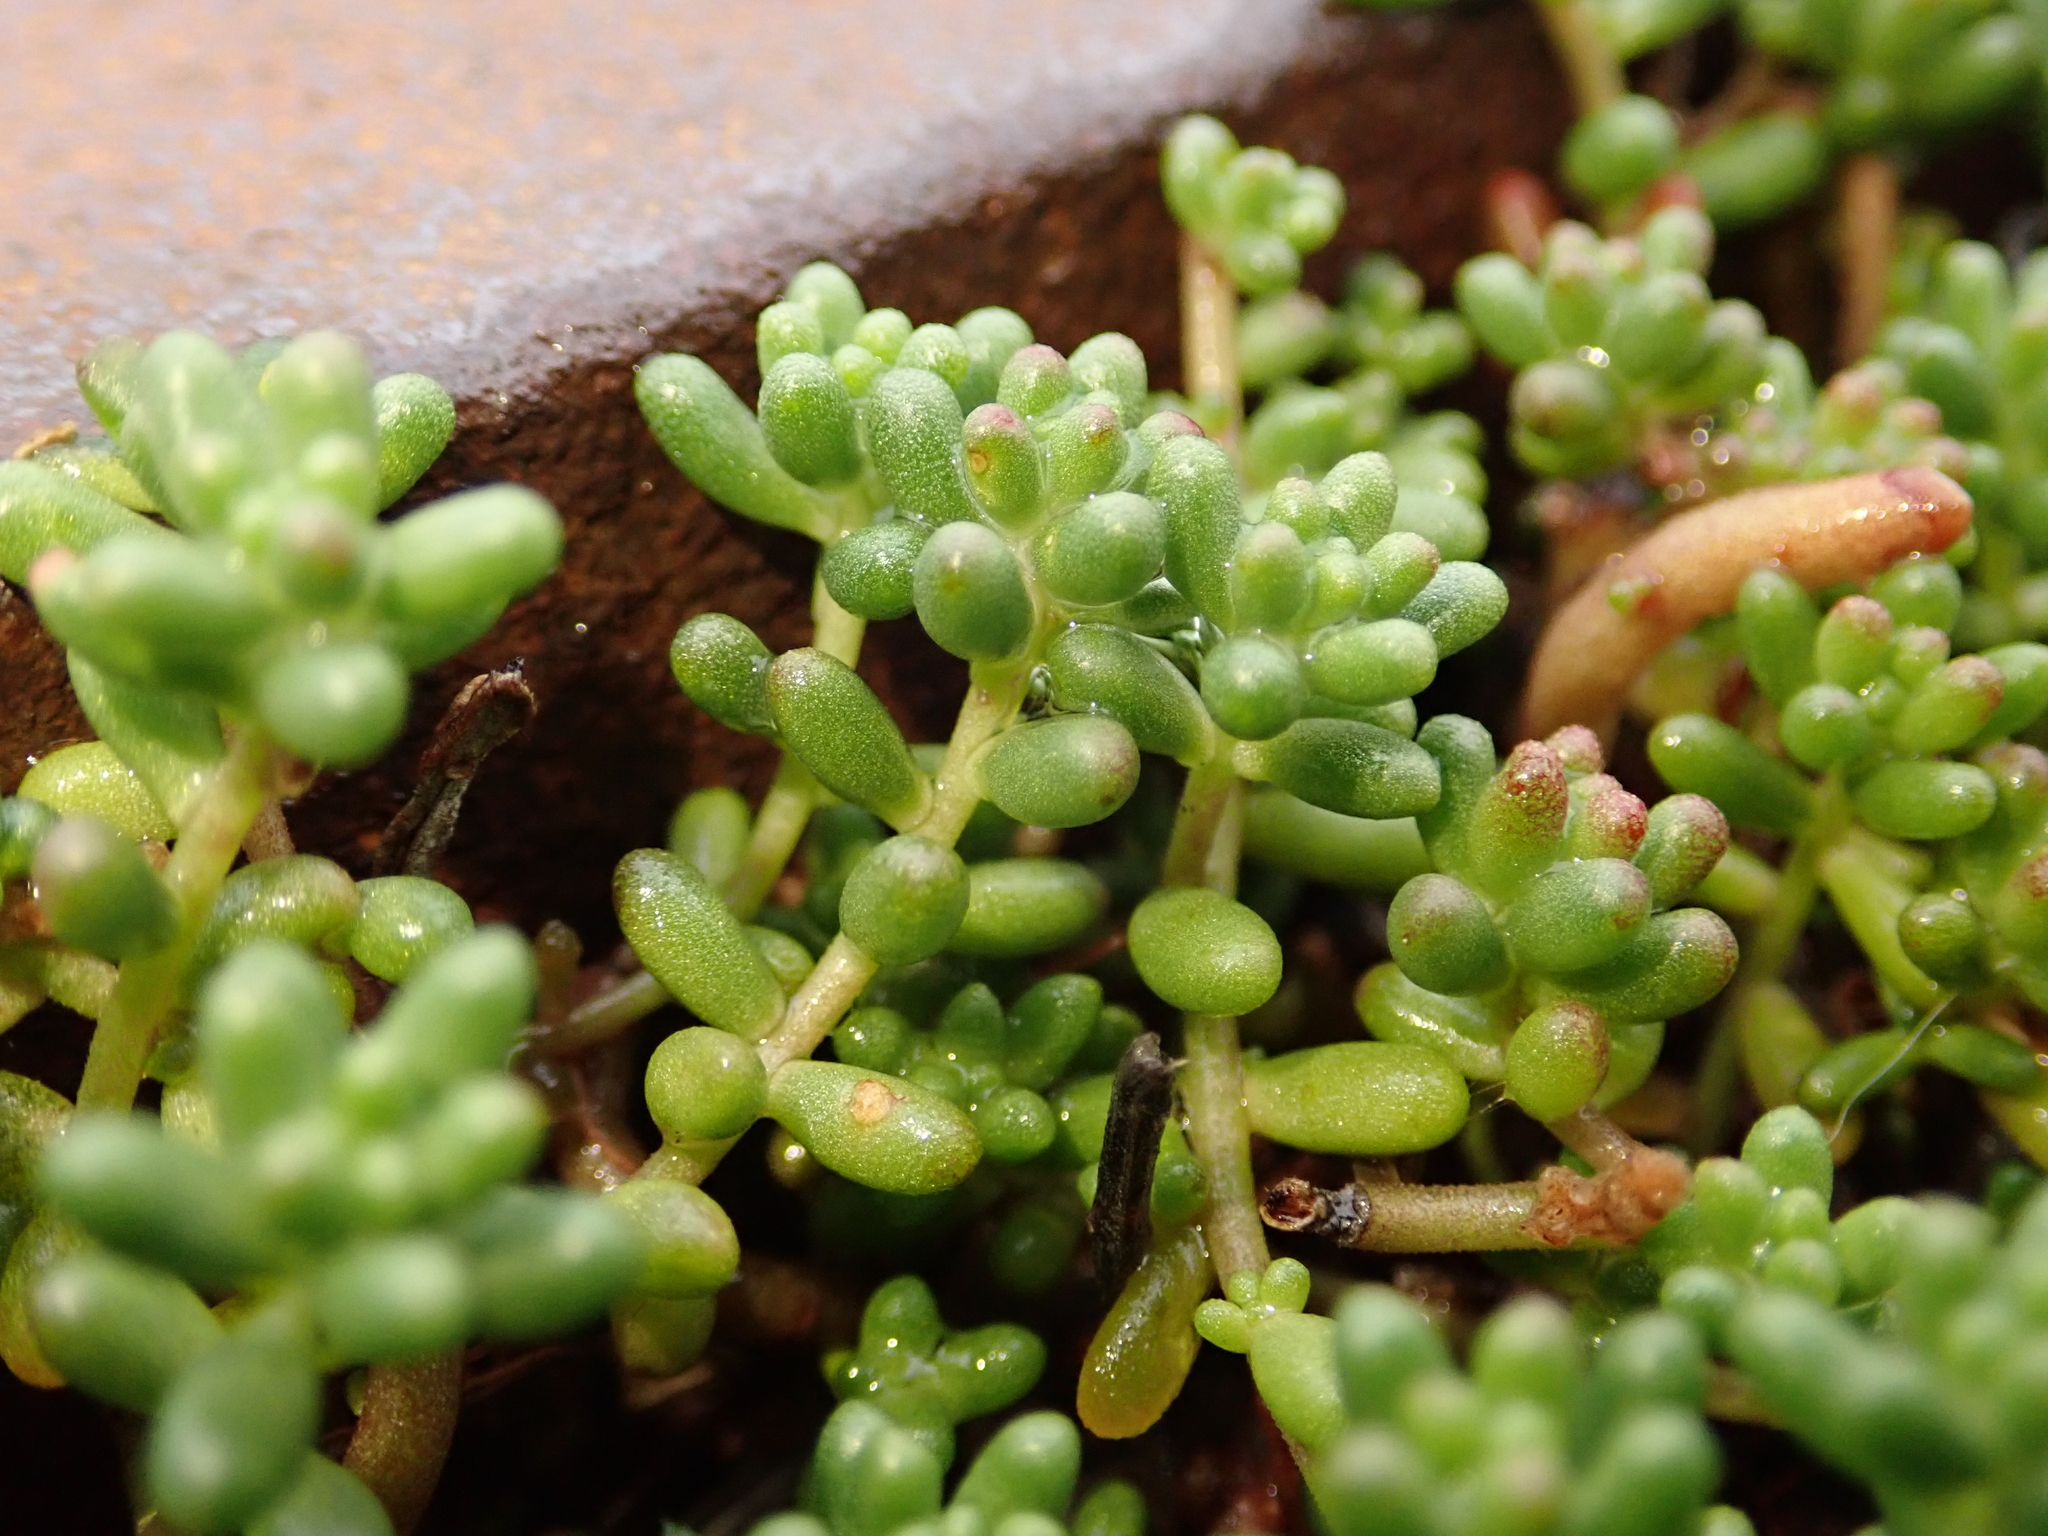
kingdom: Plantae
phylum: Tracheophyta
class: Magnoliopsida
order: Saxifragales
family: Crassulaceae
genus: Sedum
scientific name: Sedum album
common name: White stonecrop
